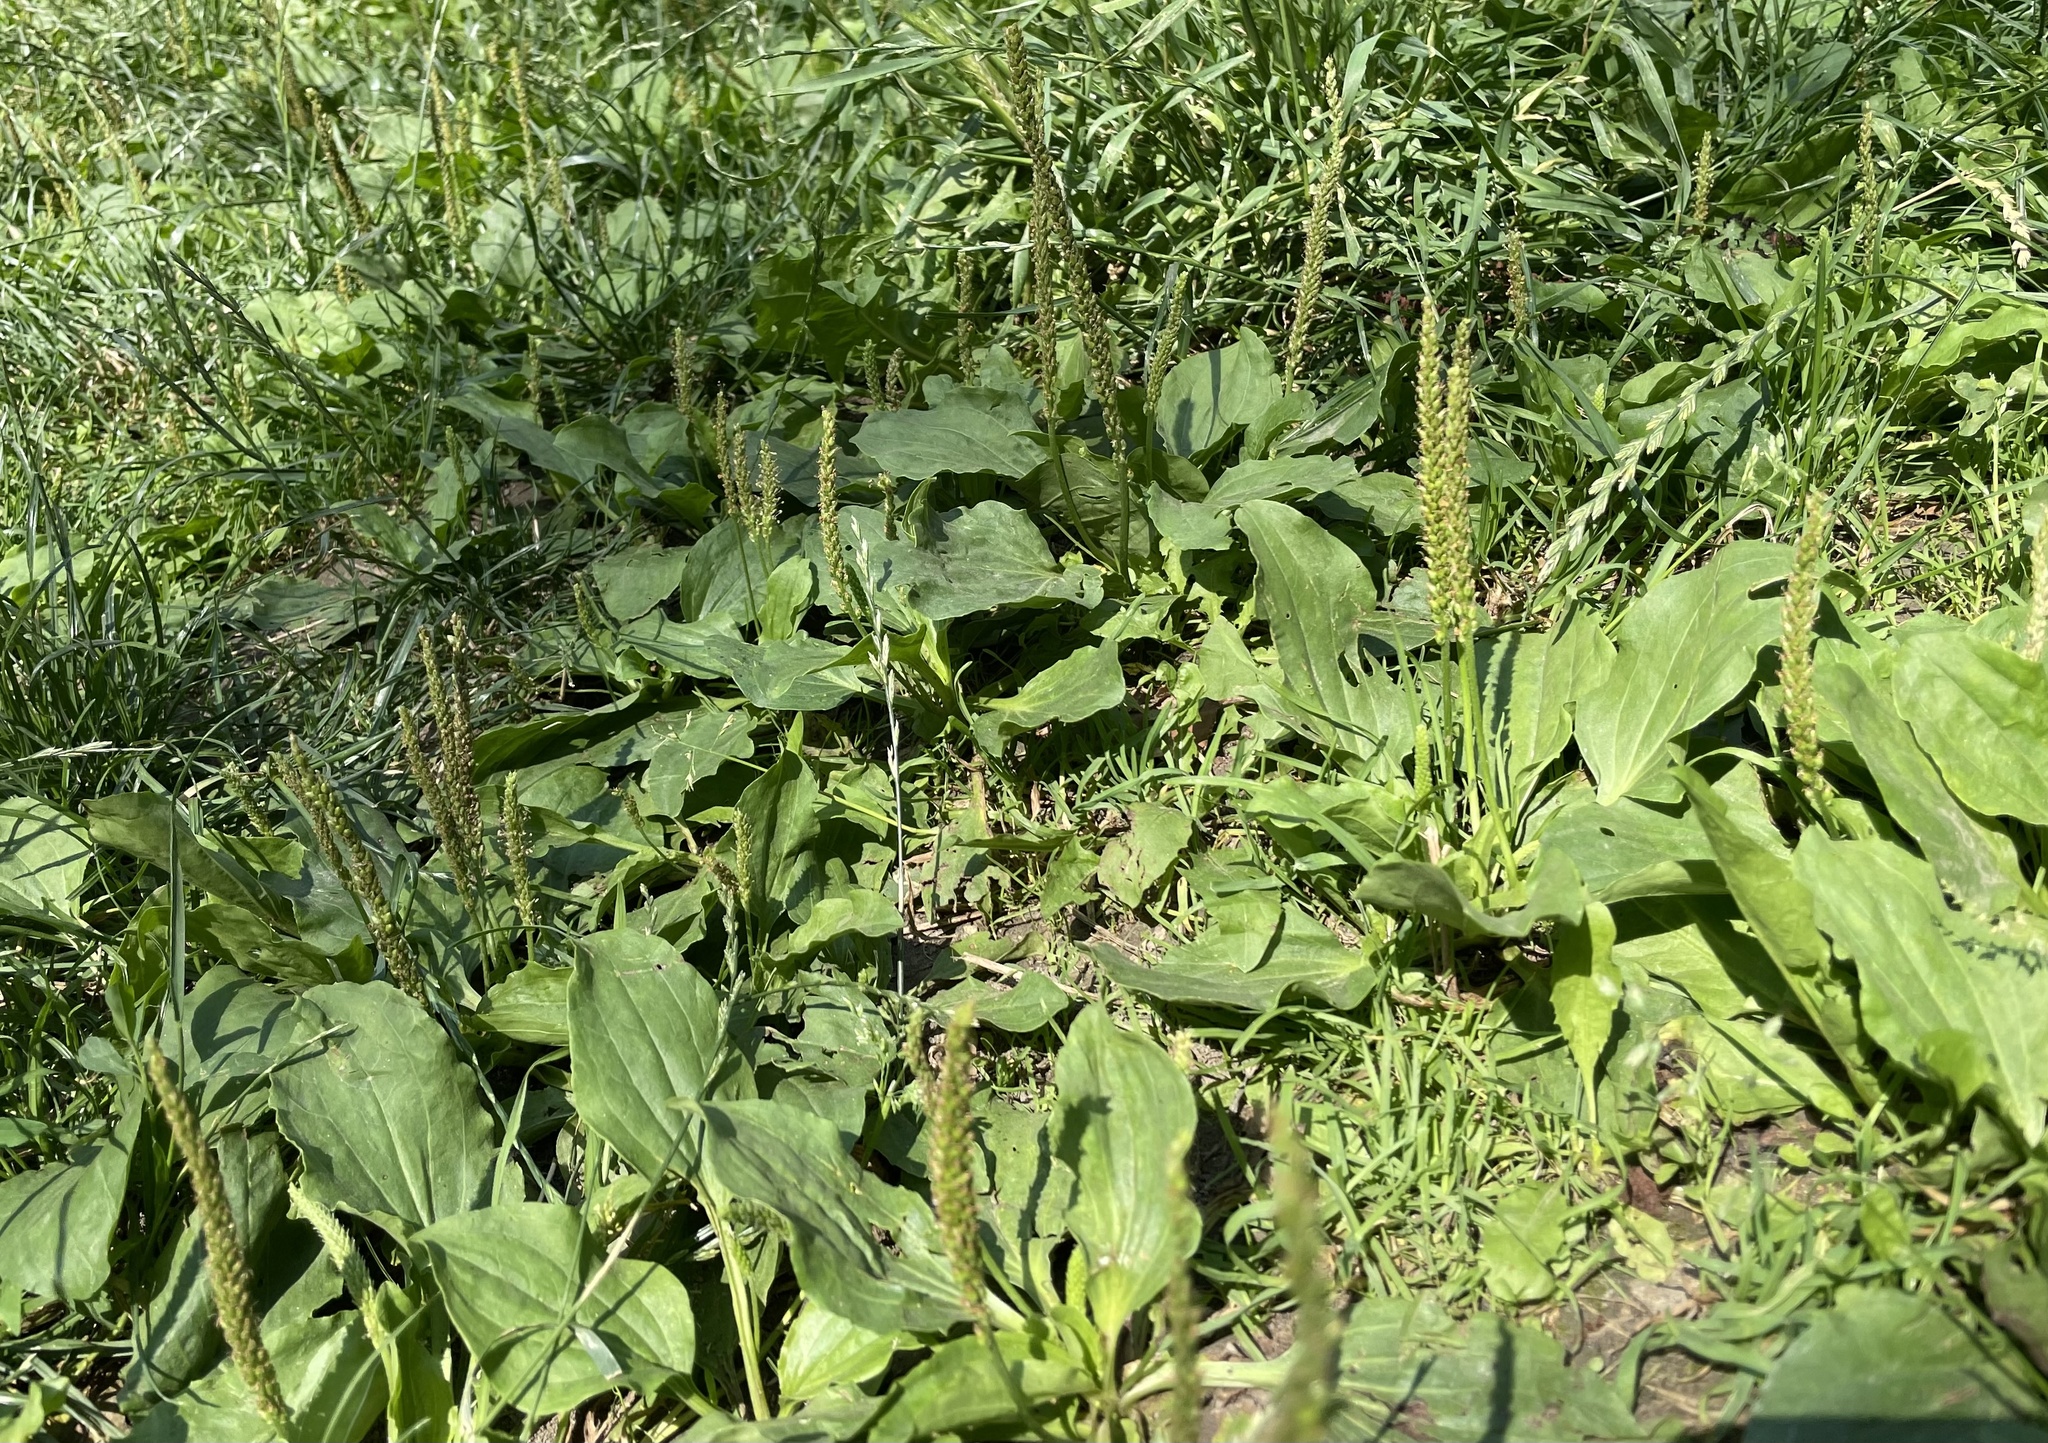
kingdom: Plantae
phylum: Tracheophyta
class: Magnoliopsida
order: Lamiales
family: Plantaginaceae
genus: Plantago
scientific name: Plantago major
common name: Common plantain
